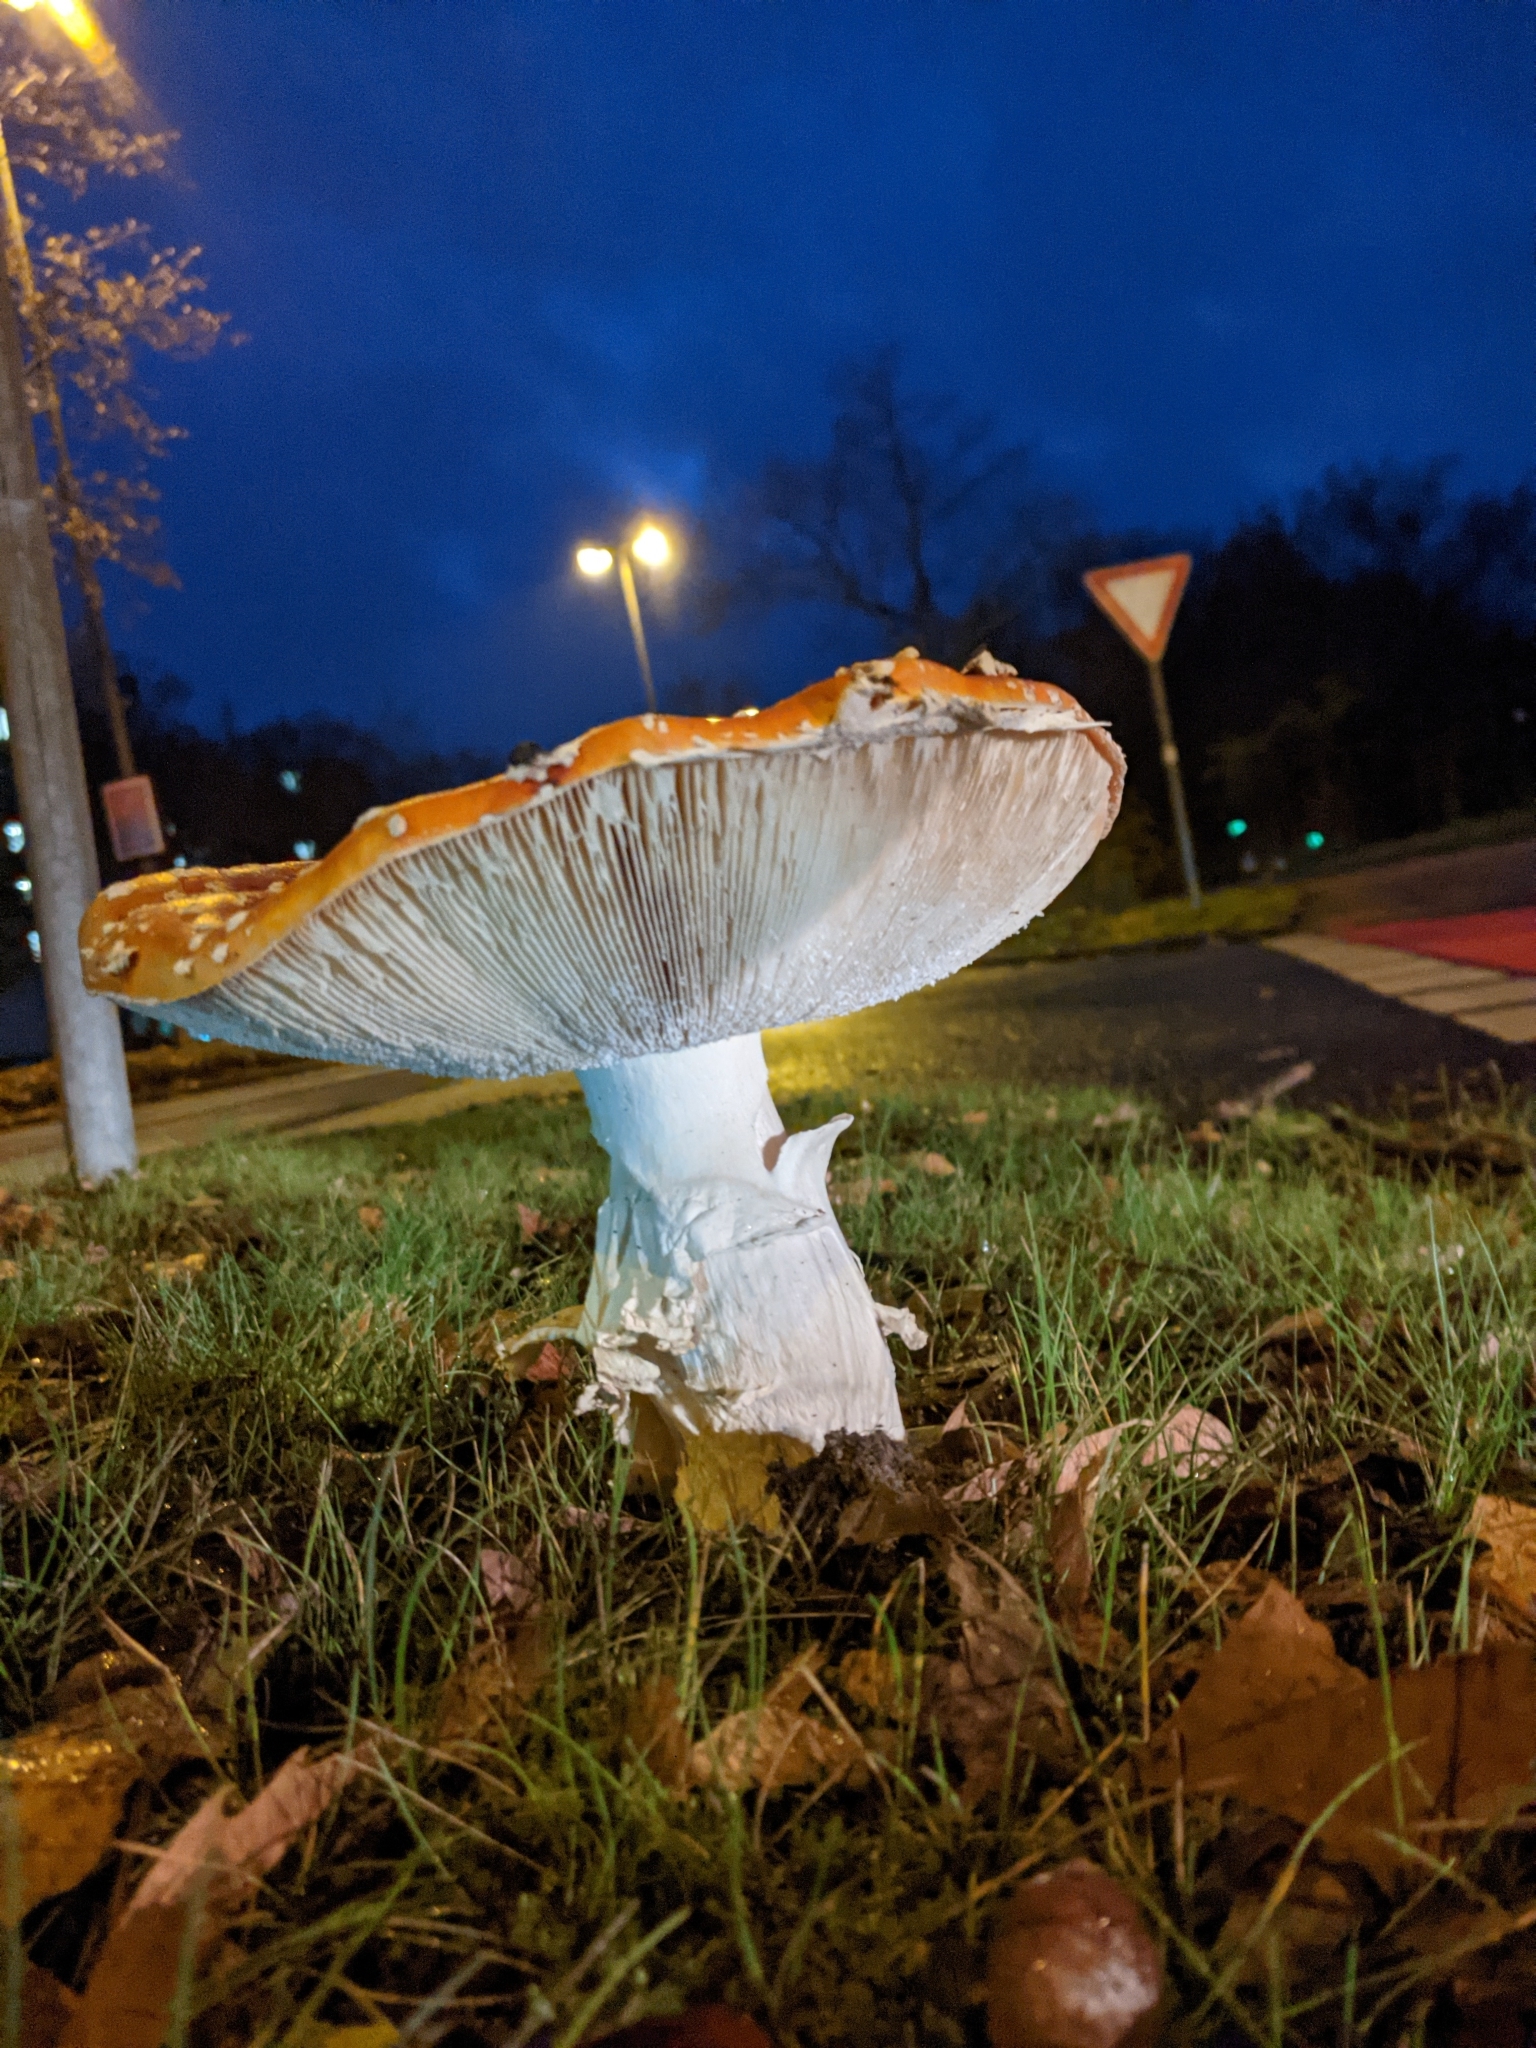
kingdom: Fungi
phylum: Basidiomycota
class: Agaricomycetes
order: Agaricales
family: Amanitaceae
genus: Amanita
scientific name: Amanita muscaria
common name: Fly agaric
